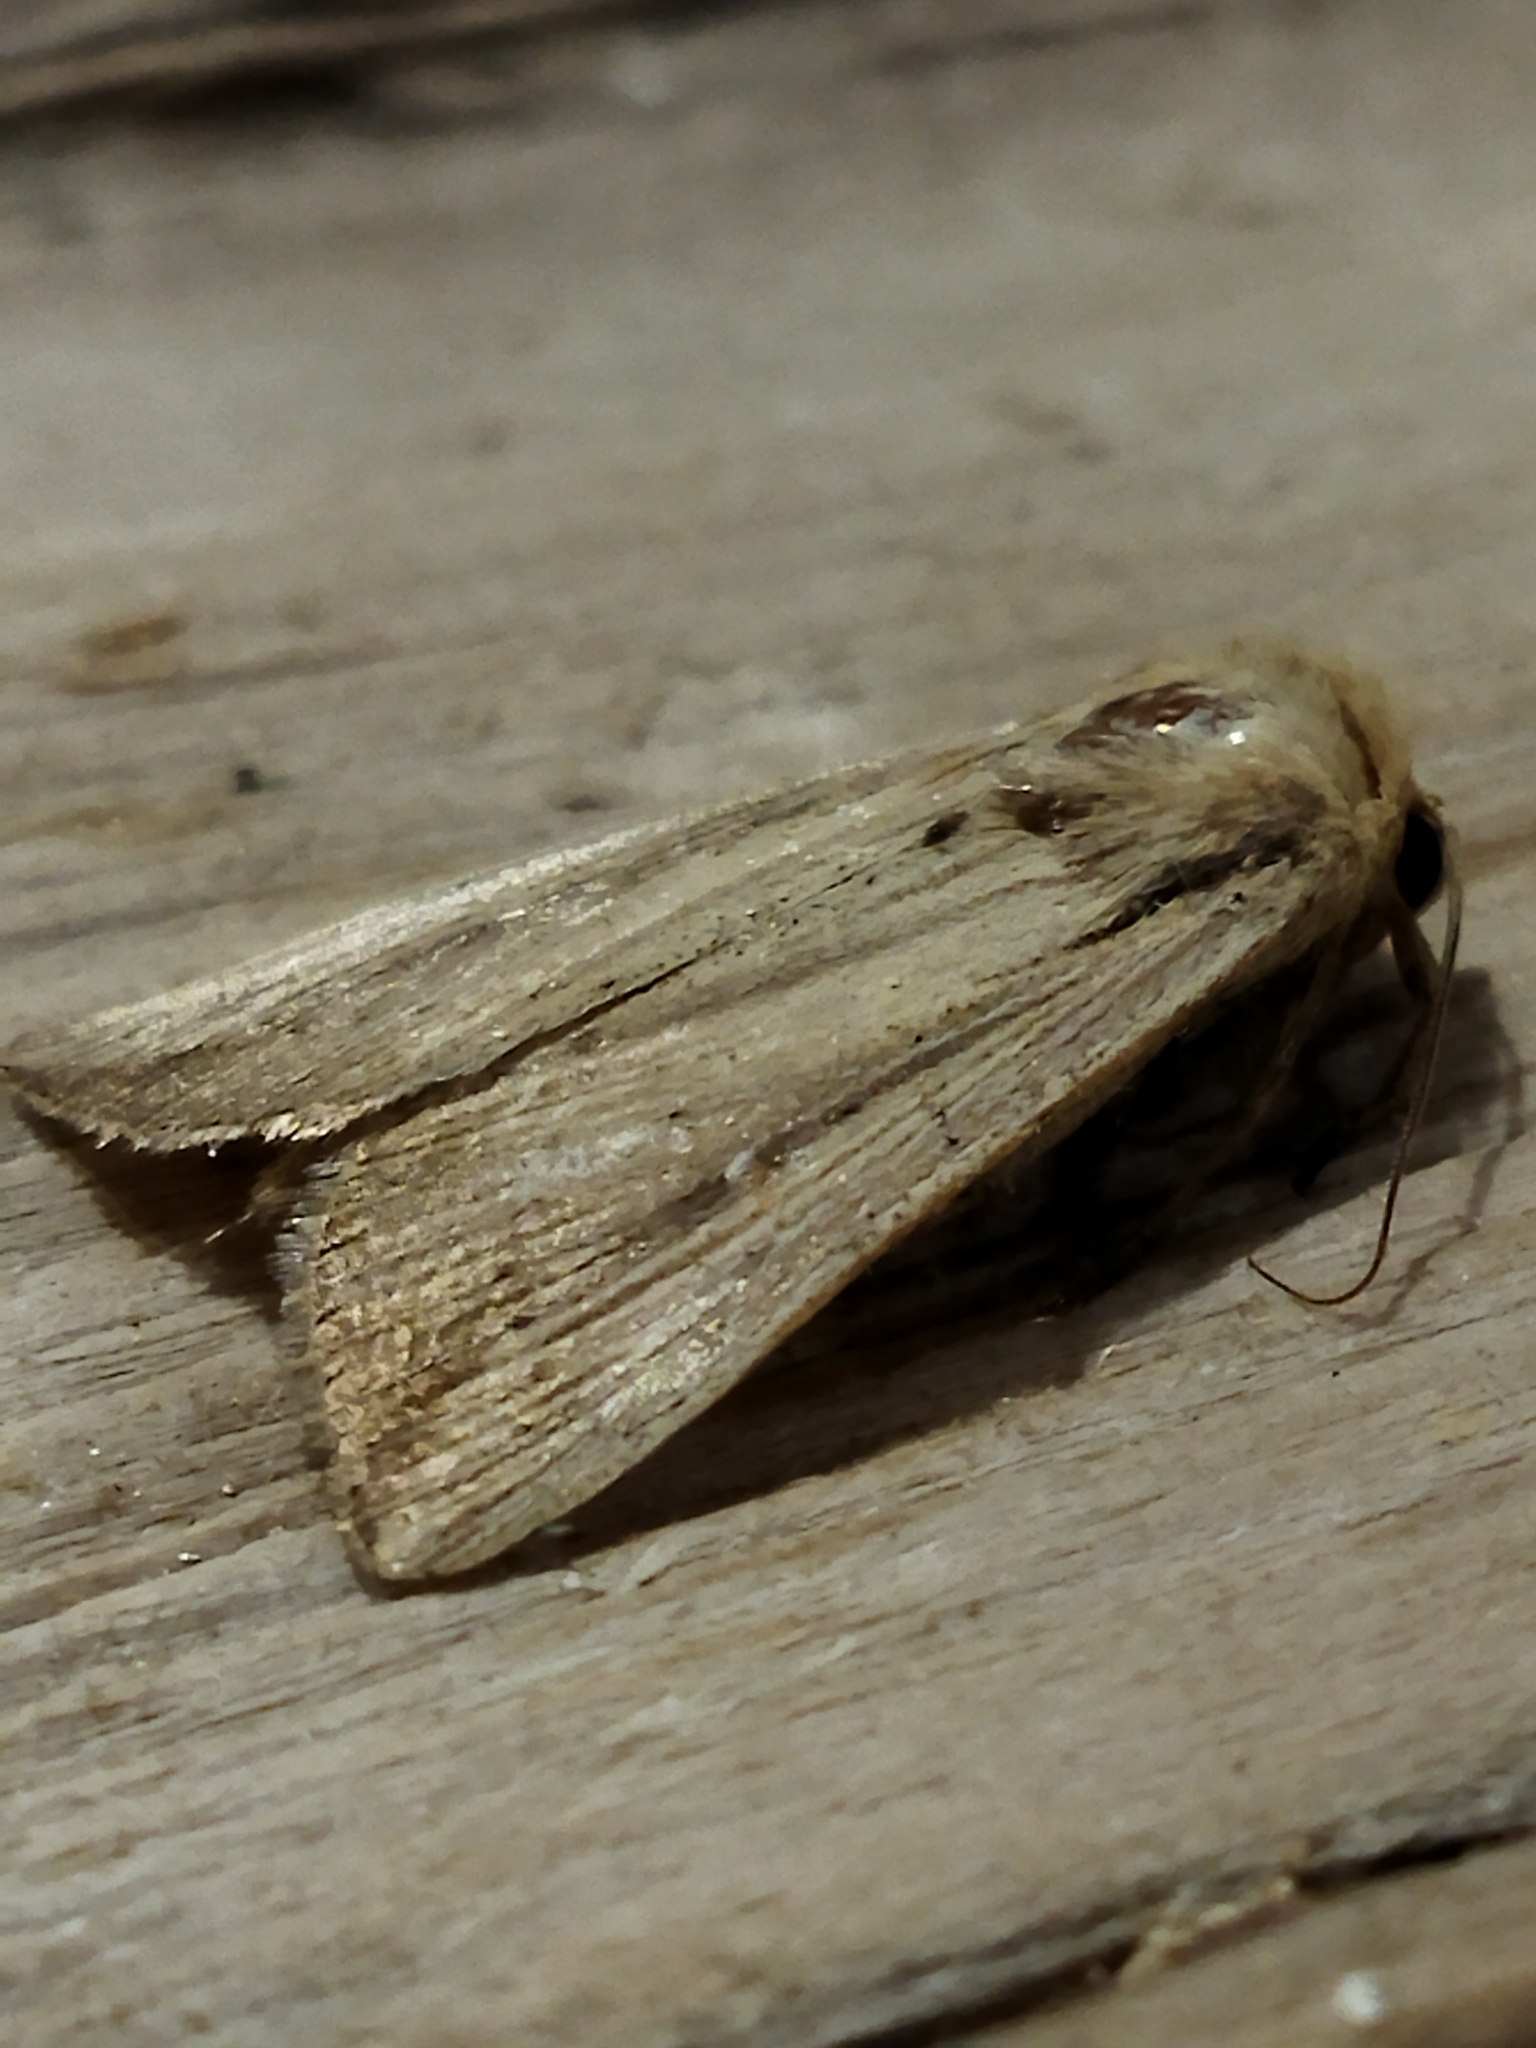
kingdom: Animalia
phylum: Arthropoda
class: Insecta
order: Lepidoptera
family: Noctuidae
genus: Leucania
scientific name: Leucania loreyi
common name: The cosmopolitan
